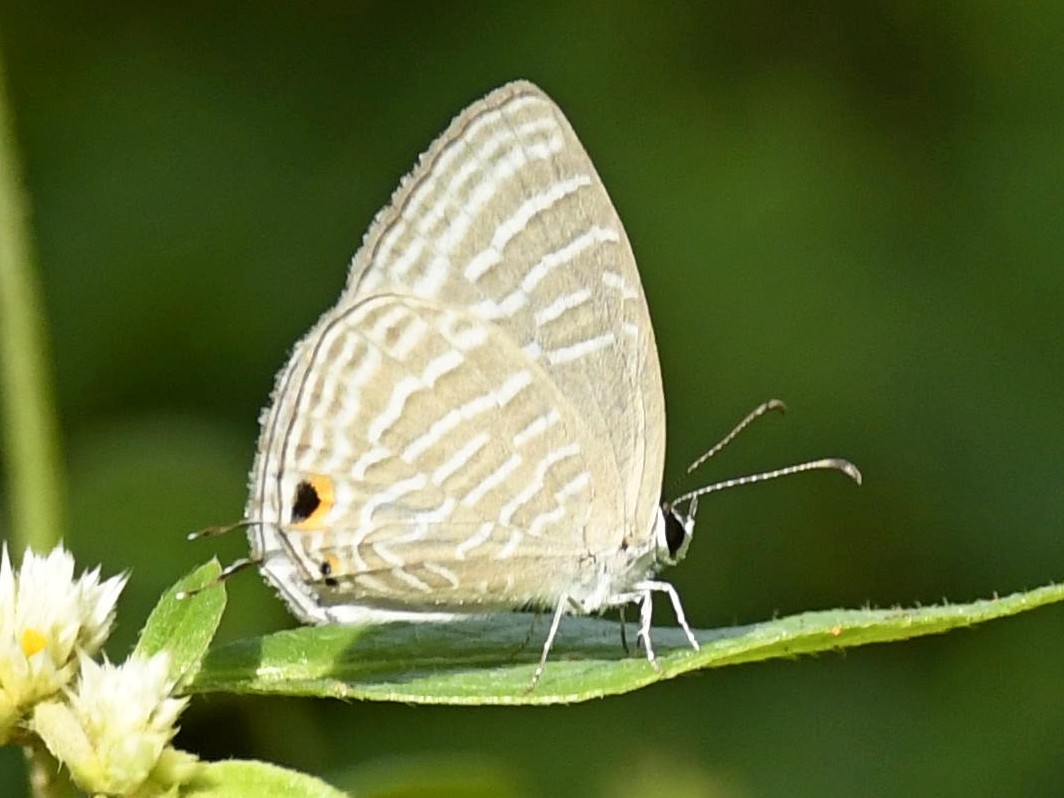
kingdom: Animalia
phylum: Arthropoda
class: Insecta
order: Lepidoptera
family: Lycaenidae
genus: Jamides
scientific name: Jamides celeno
